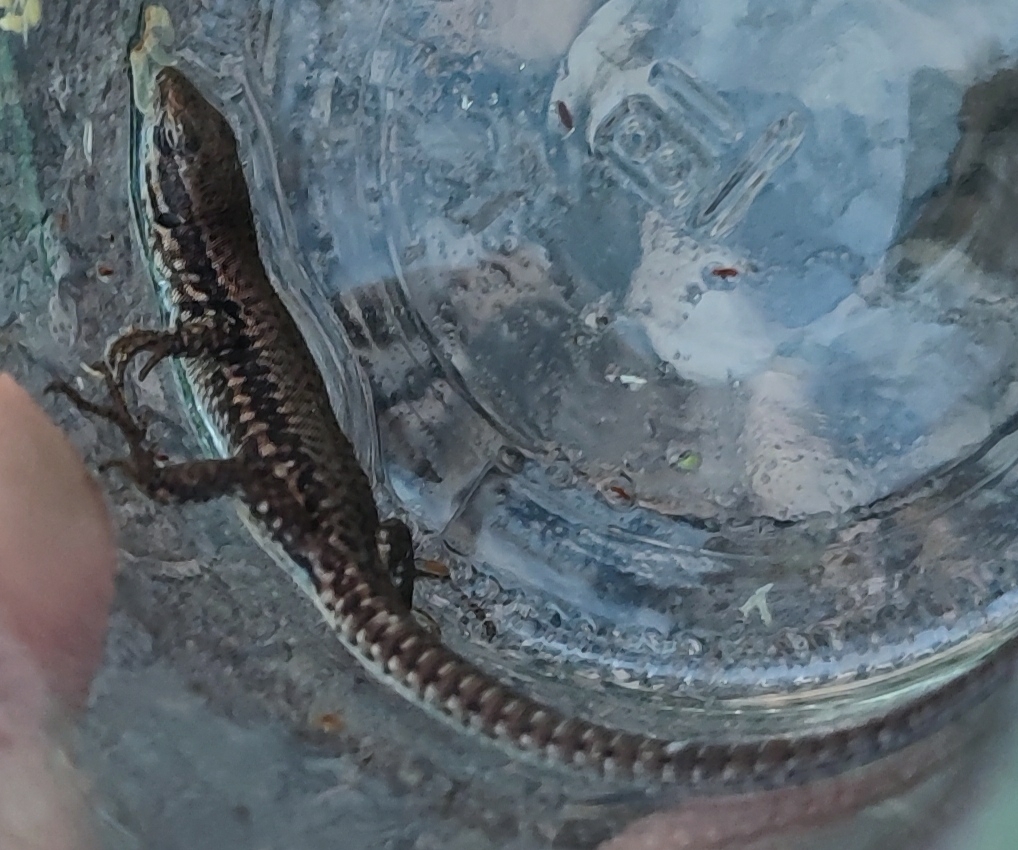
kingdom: Animalia
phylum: Chordata
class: Squamata
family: Lacertidae
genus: Podarcis
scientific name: Podarcis muralis
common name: Common wall lizard
